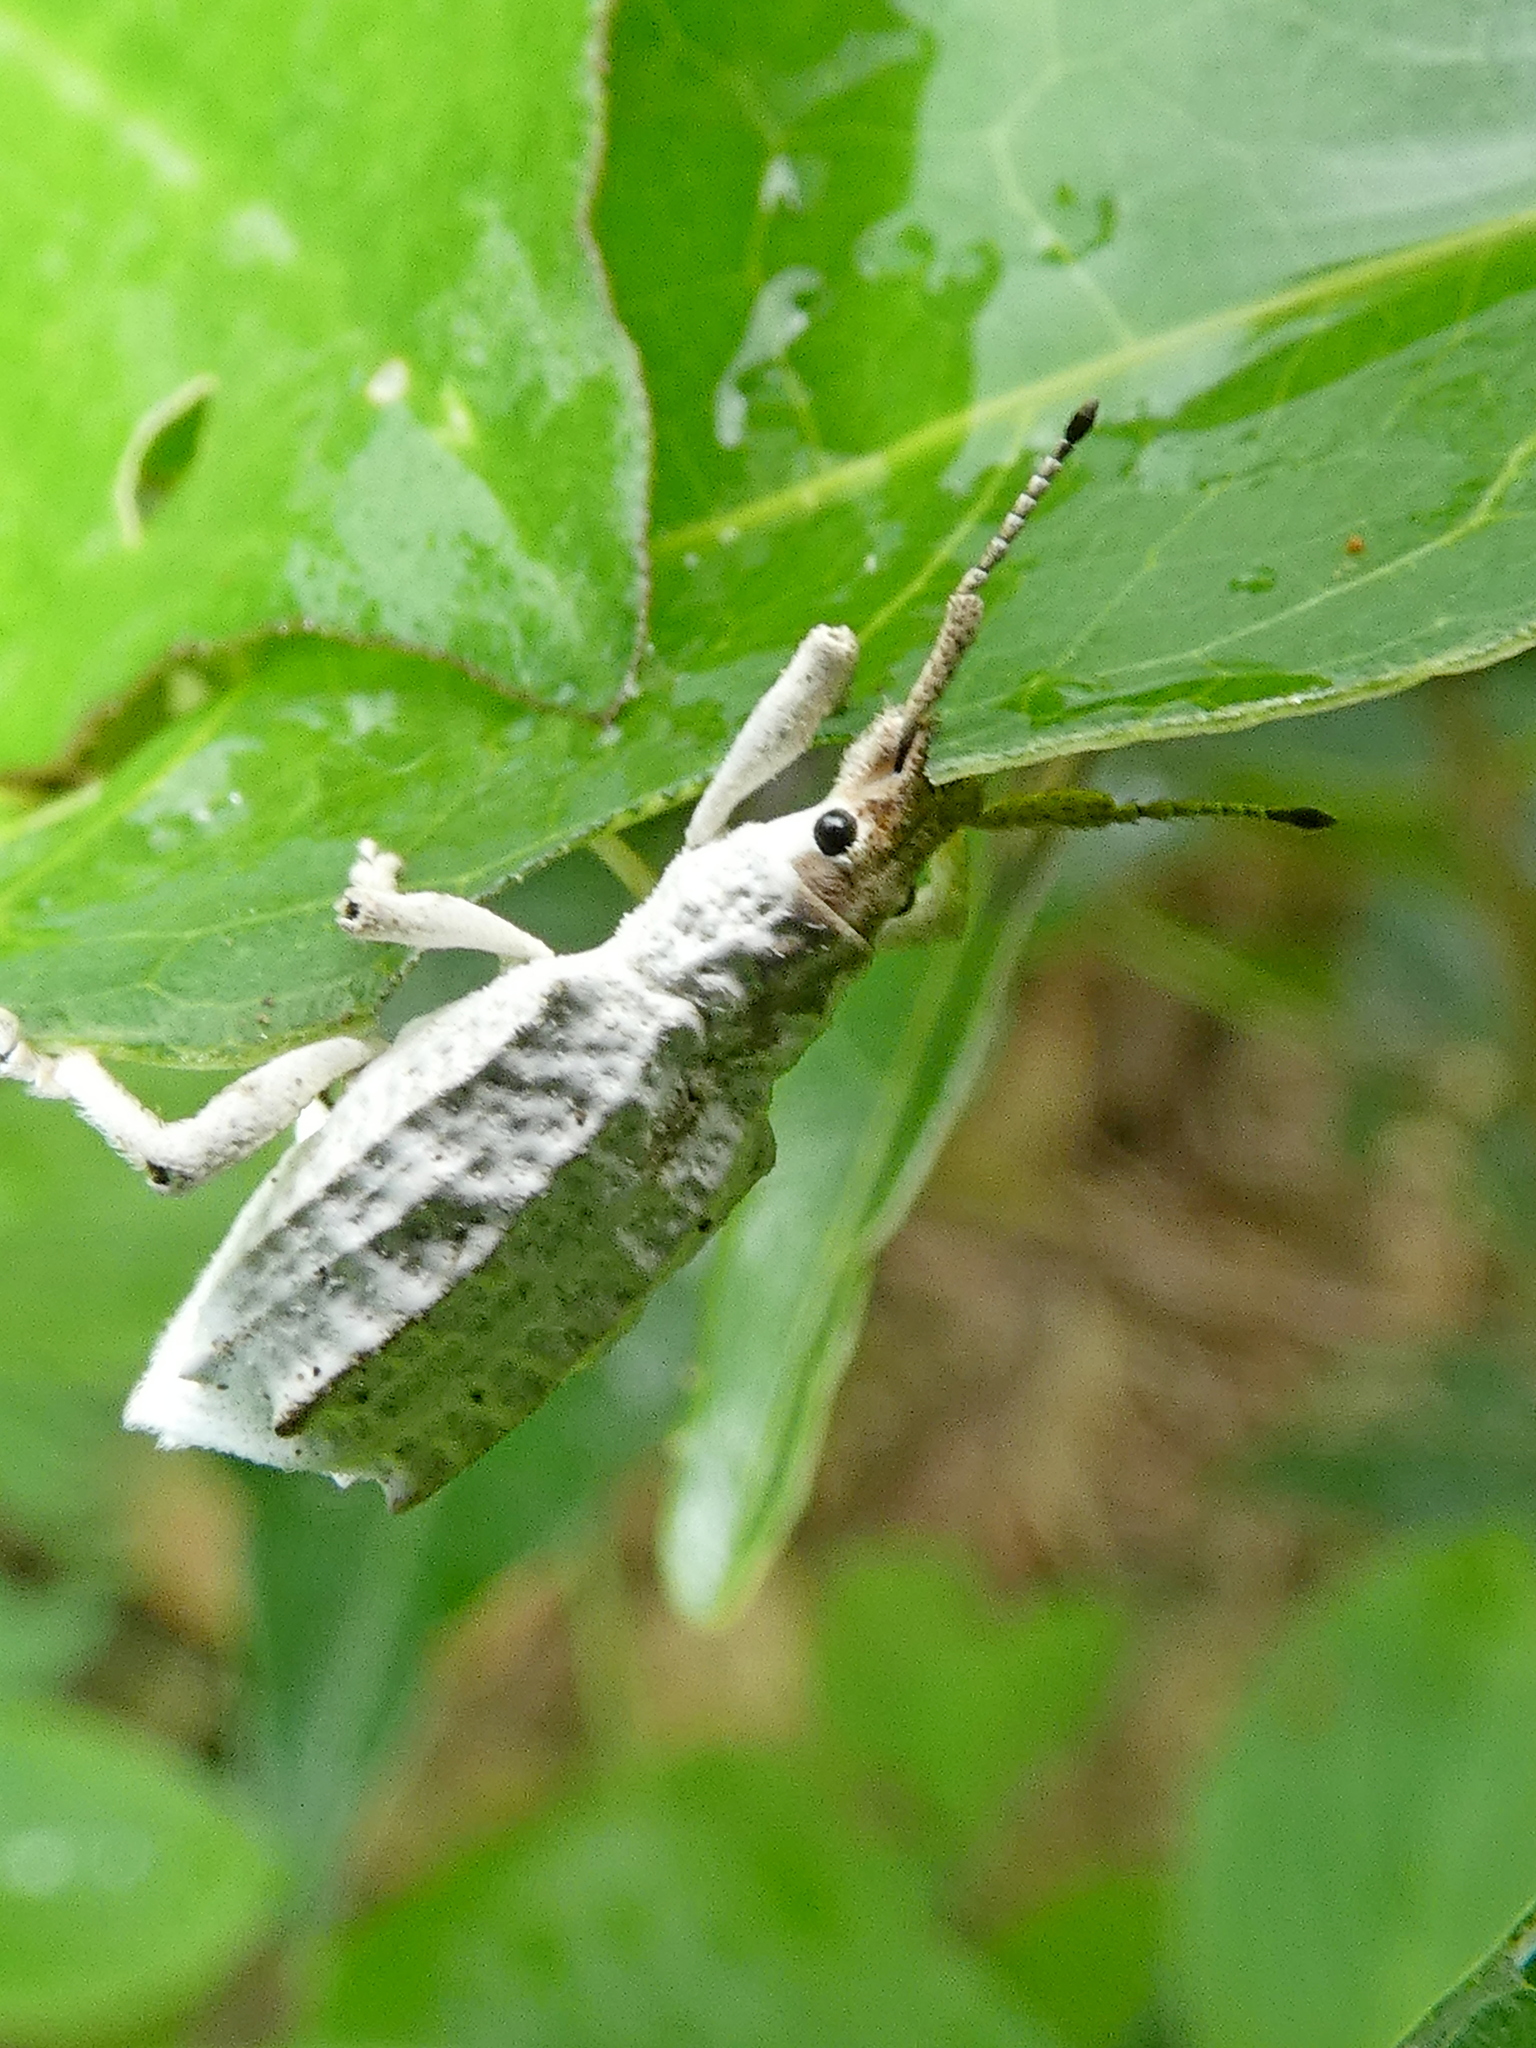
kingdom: Animalia
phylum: Arthropoda
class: Insecta
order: Coleoptera
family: Curculionidae
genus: Compsus
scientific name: Compsus niveus
